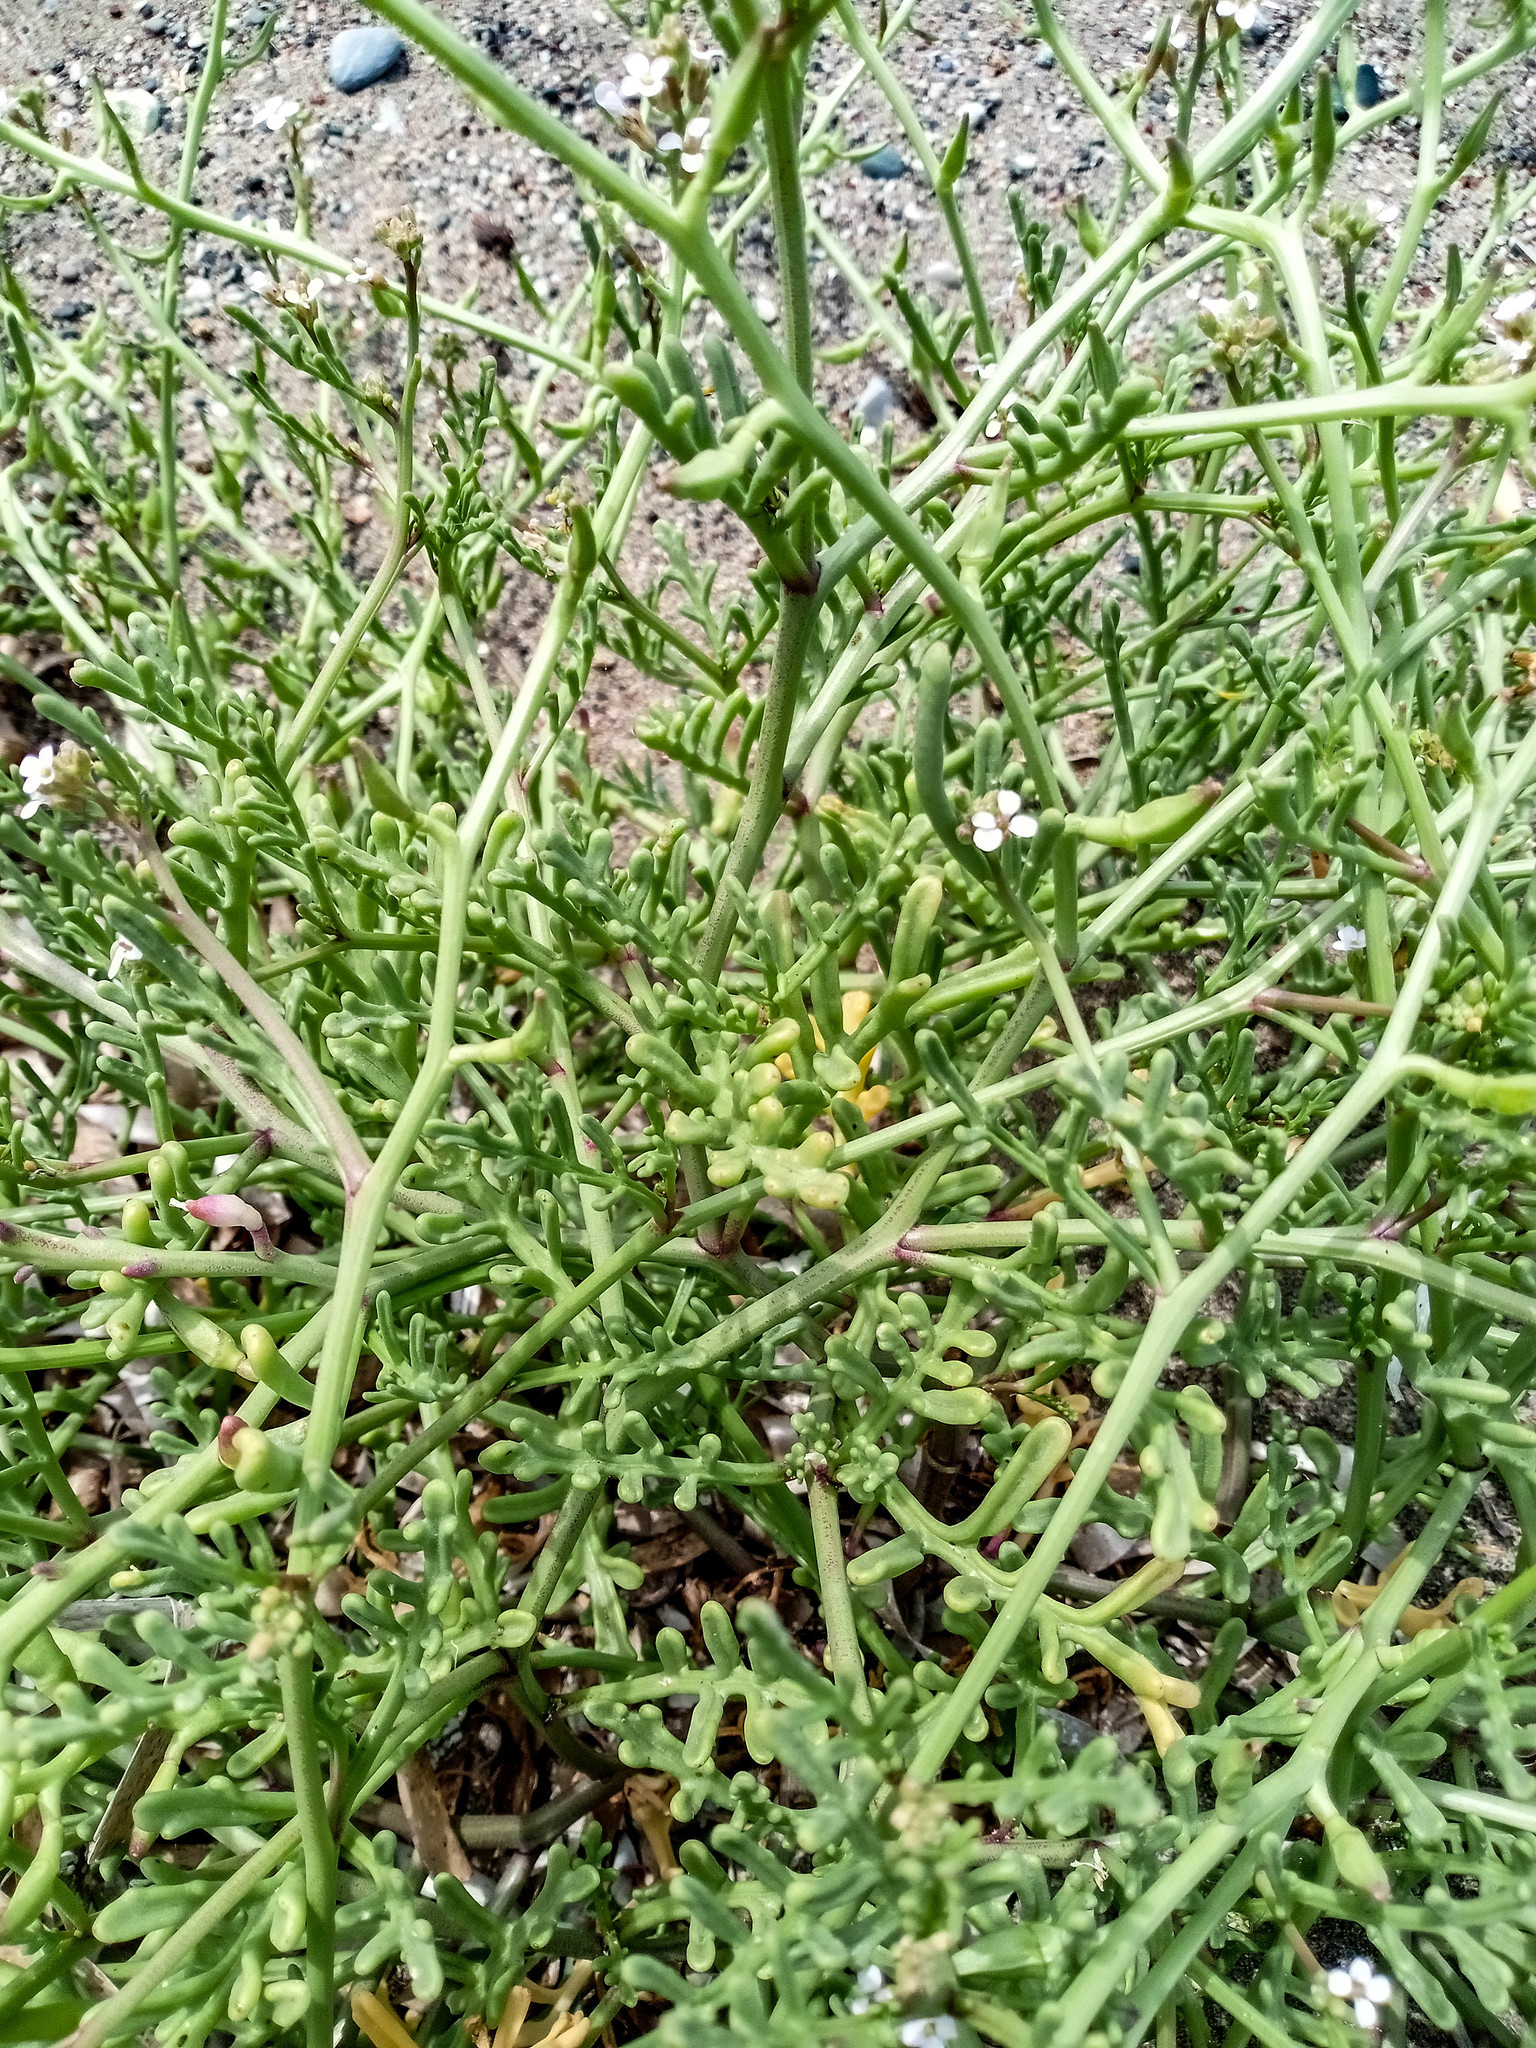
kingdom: Plantae
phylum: Tracheophyta
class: Magnoliopsida
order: Brassicales
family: Brassicaceae
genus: Cakile
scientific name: Cakile maritima
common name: Sea rocket
